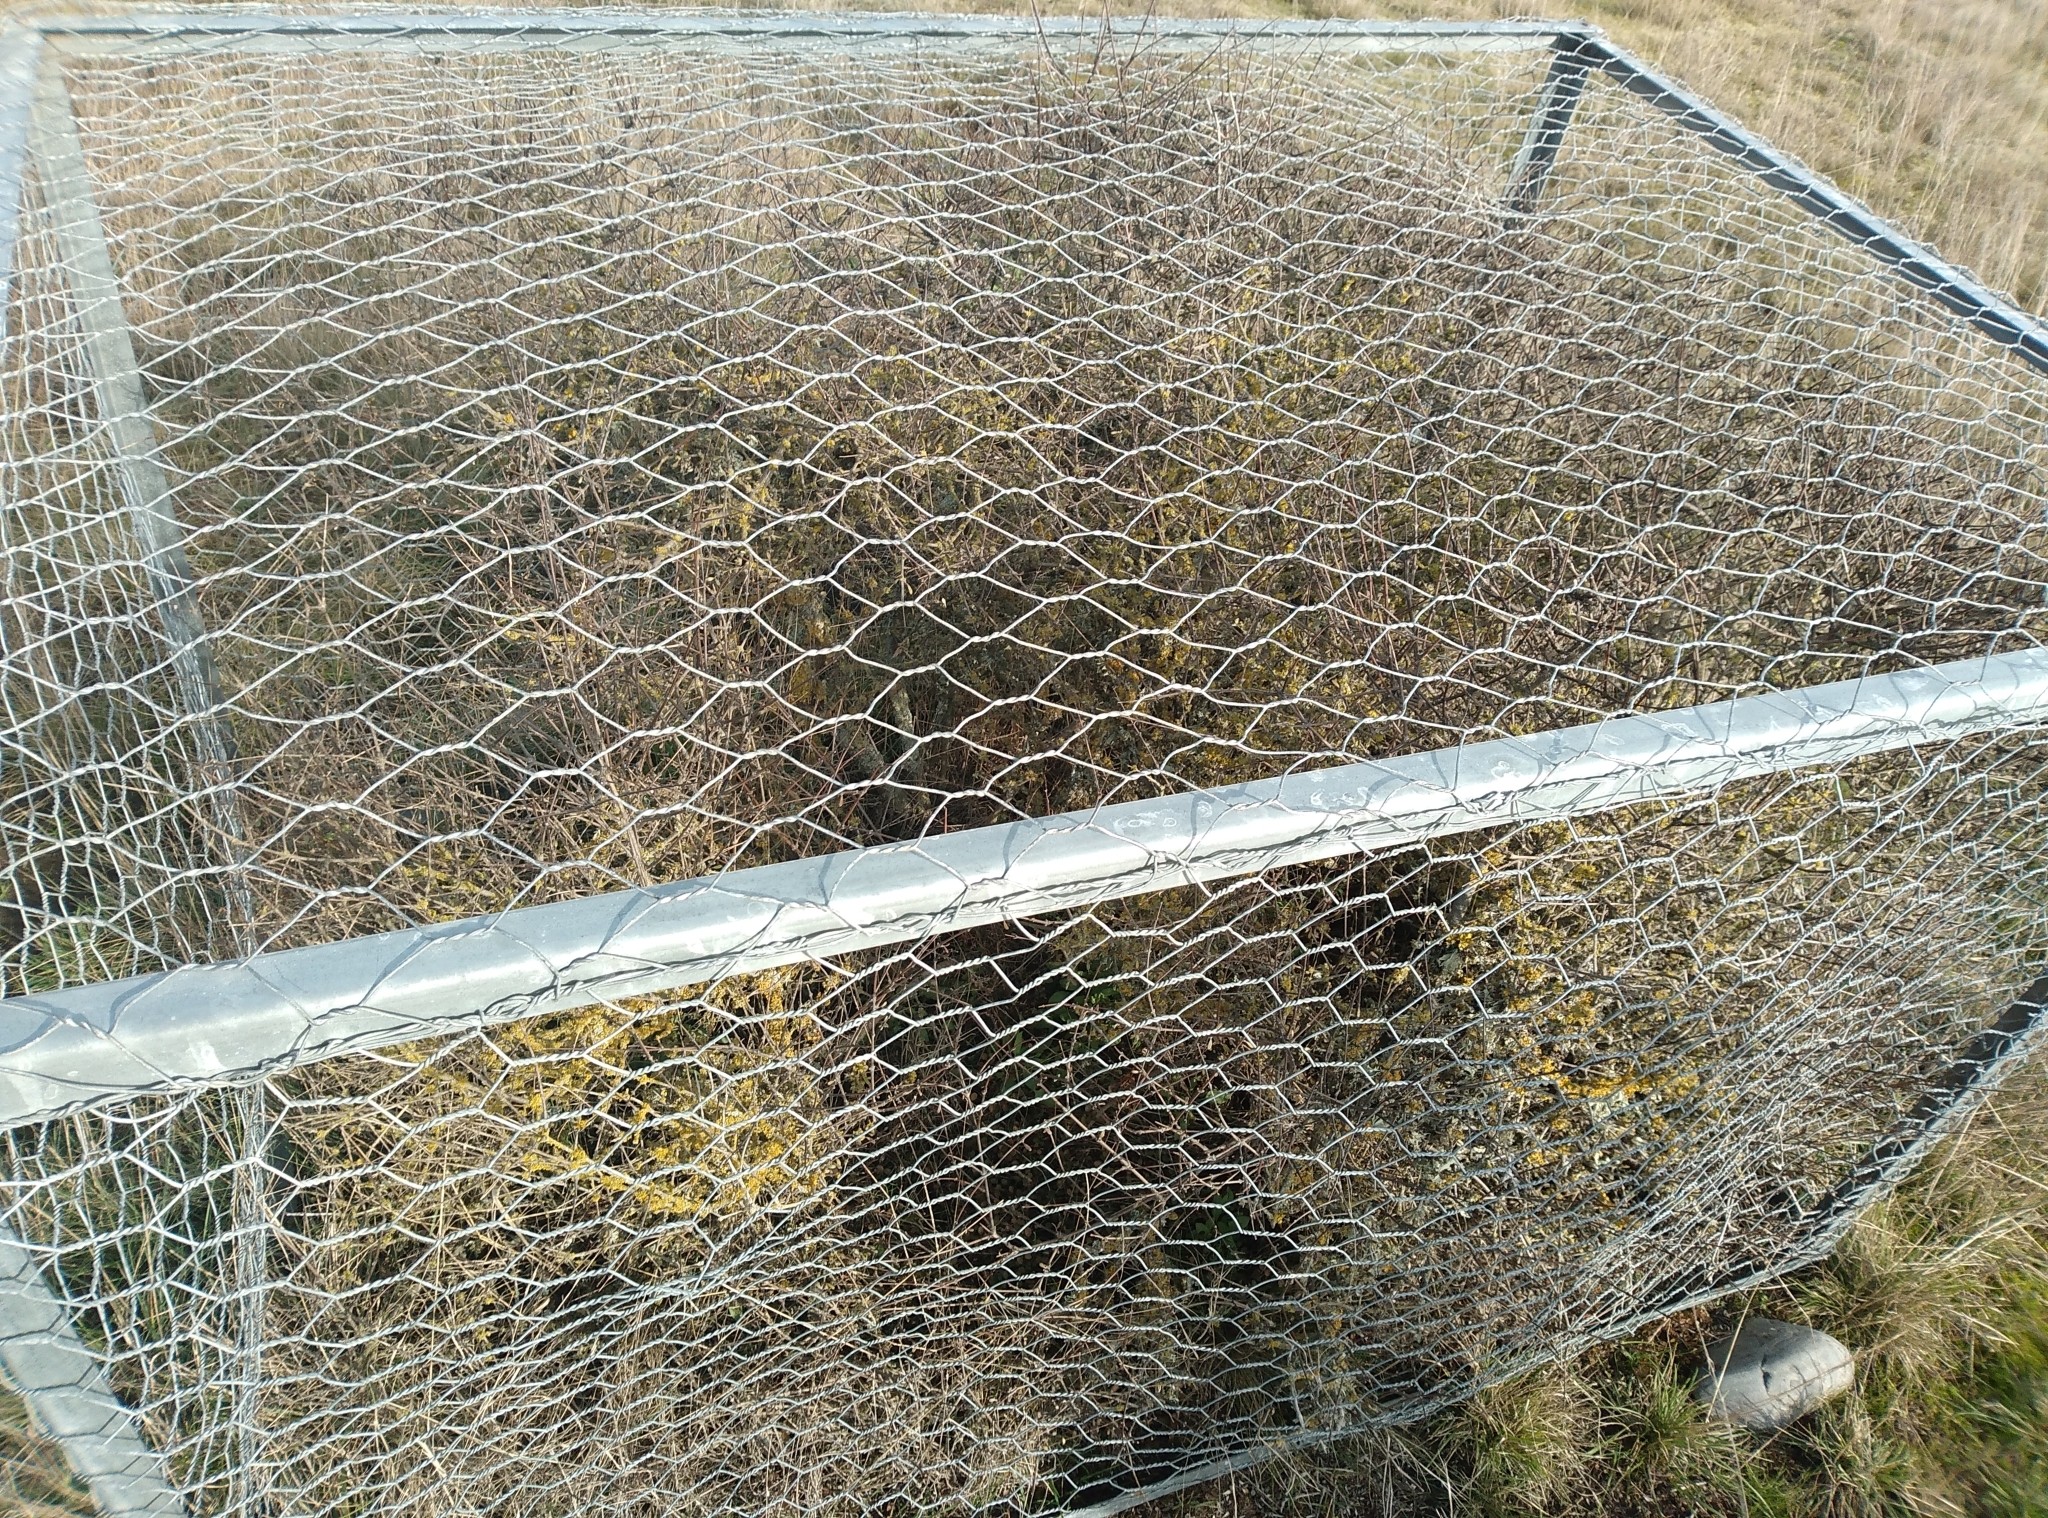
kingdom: Plantae
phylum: Tracheophyta
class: Magnoliopsida
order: Asterales
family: Asteraceae
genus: Olearia
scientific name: Olearia adenocarpa
